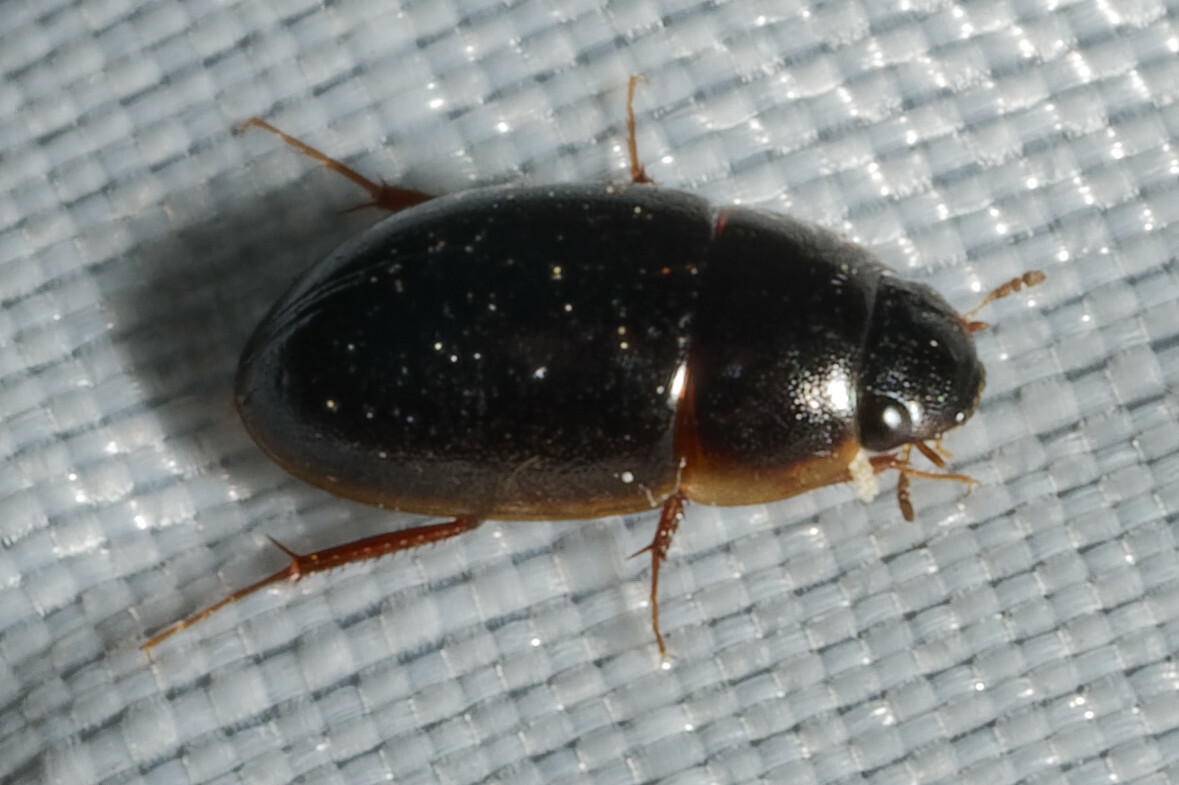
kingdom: Animalia
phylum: Arthropoda
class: Insecta
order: Coleoptera
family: Hydrophilidae
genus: Enochrus
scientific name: Enochrus
